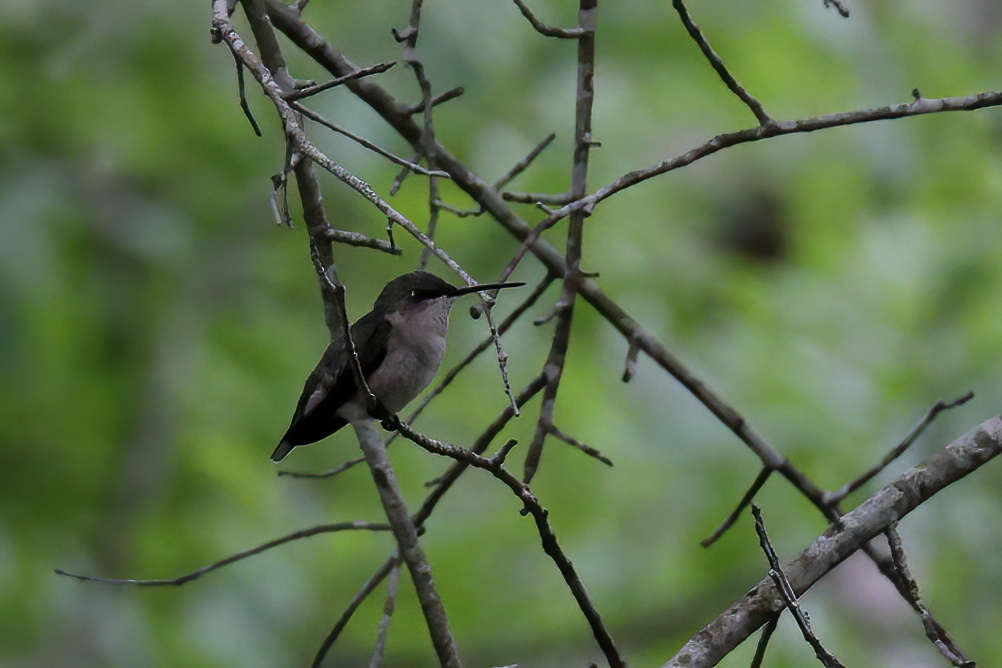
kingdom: Animalia
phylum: Chordata
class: Aves
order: Apodiformes
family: Trochilidae
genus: Archilochus
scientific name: Archilochus colubris
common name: Ruby-throated hummingbird
